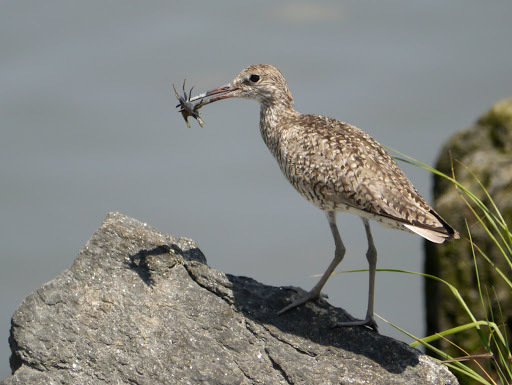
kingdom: Animalia
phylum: Chordata
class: Aves
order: Charadriiformes
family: Scolopacidae
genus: Tringa
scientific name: Tringa semipalmata
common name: Willet
